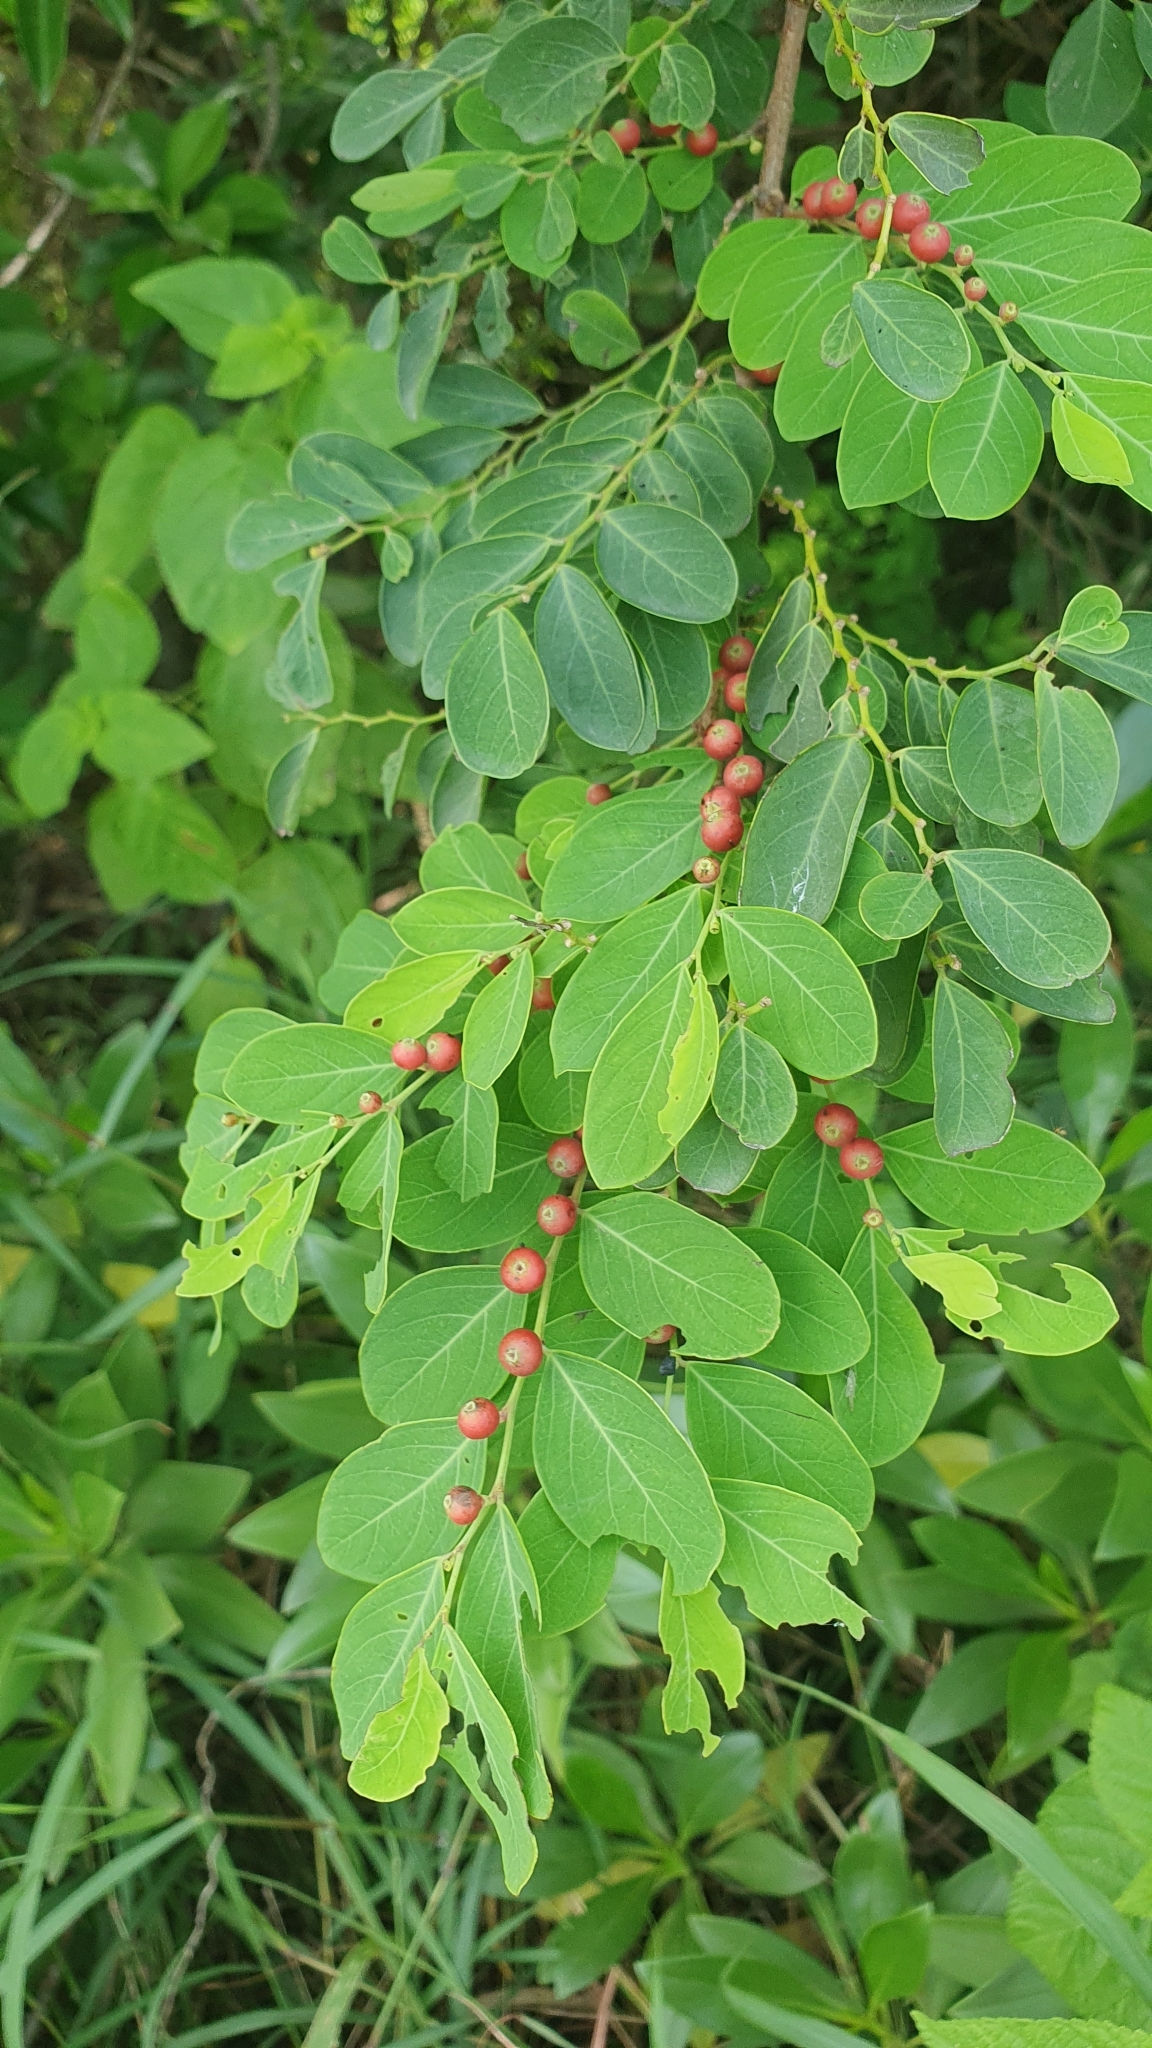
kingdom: Plantae
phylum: Tracheophyta
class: Magnoliopsida
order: Malpighiales
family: Phyllanthaceae
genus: Breynia
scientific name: Breynia vitis-idaea
